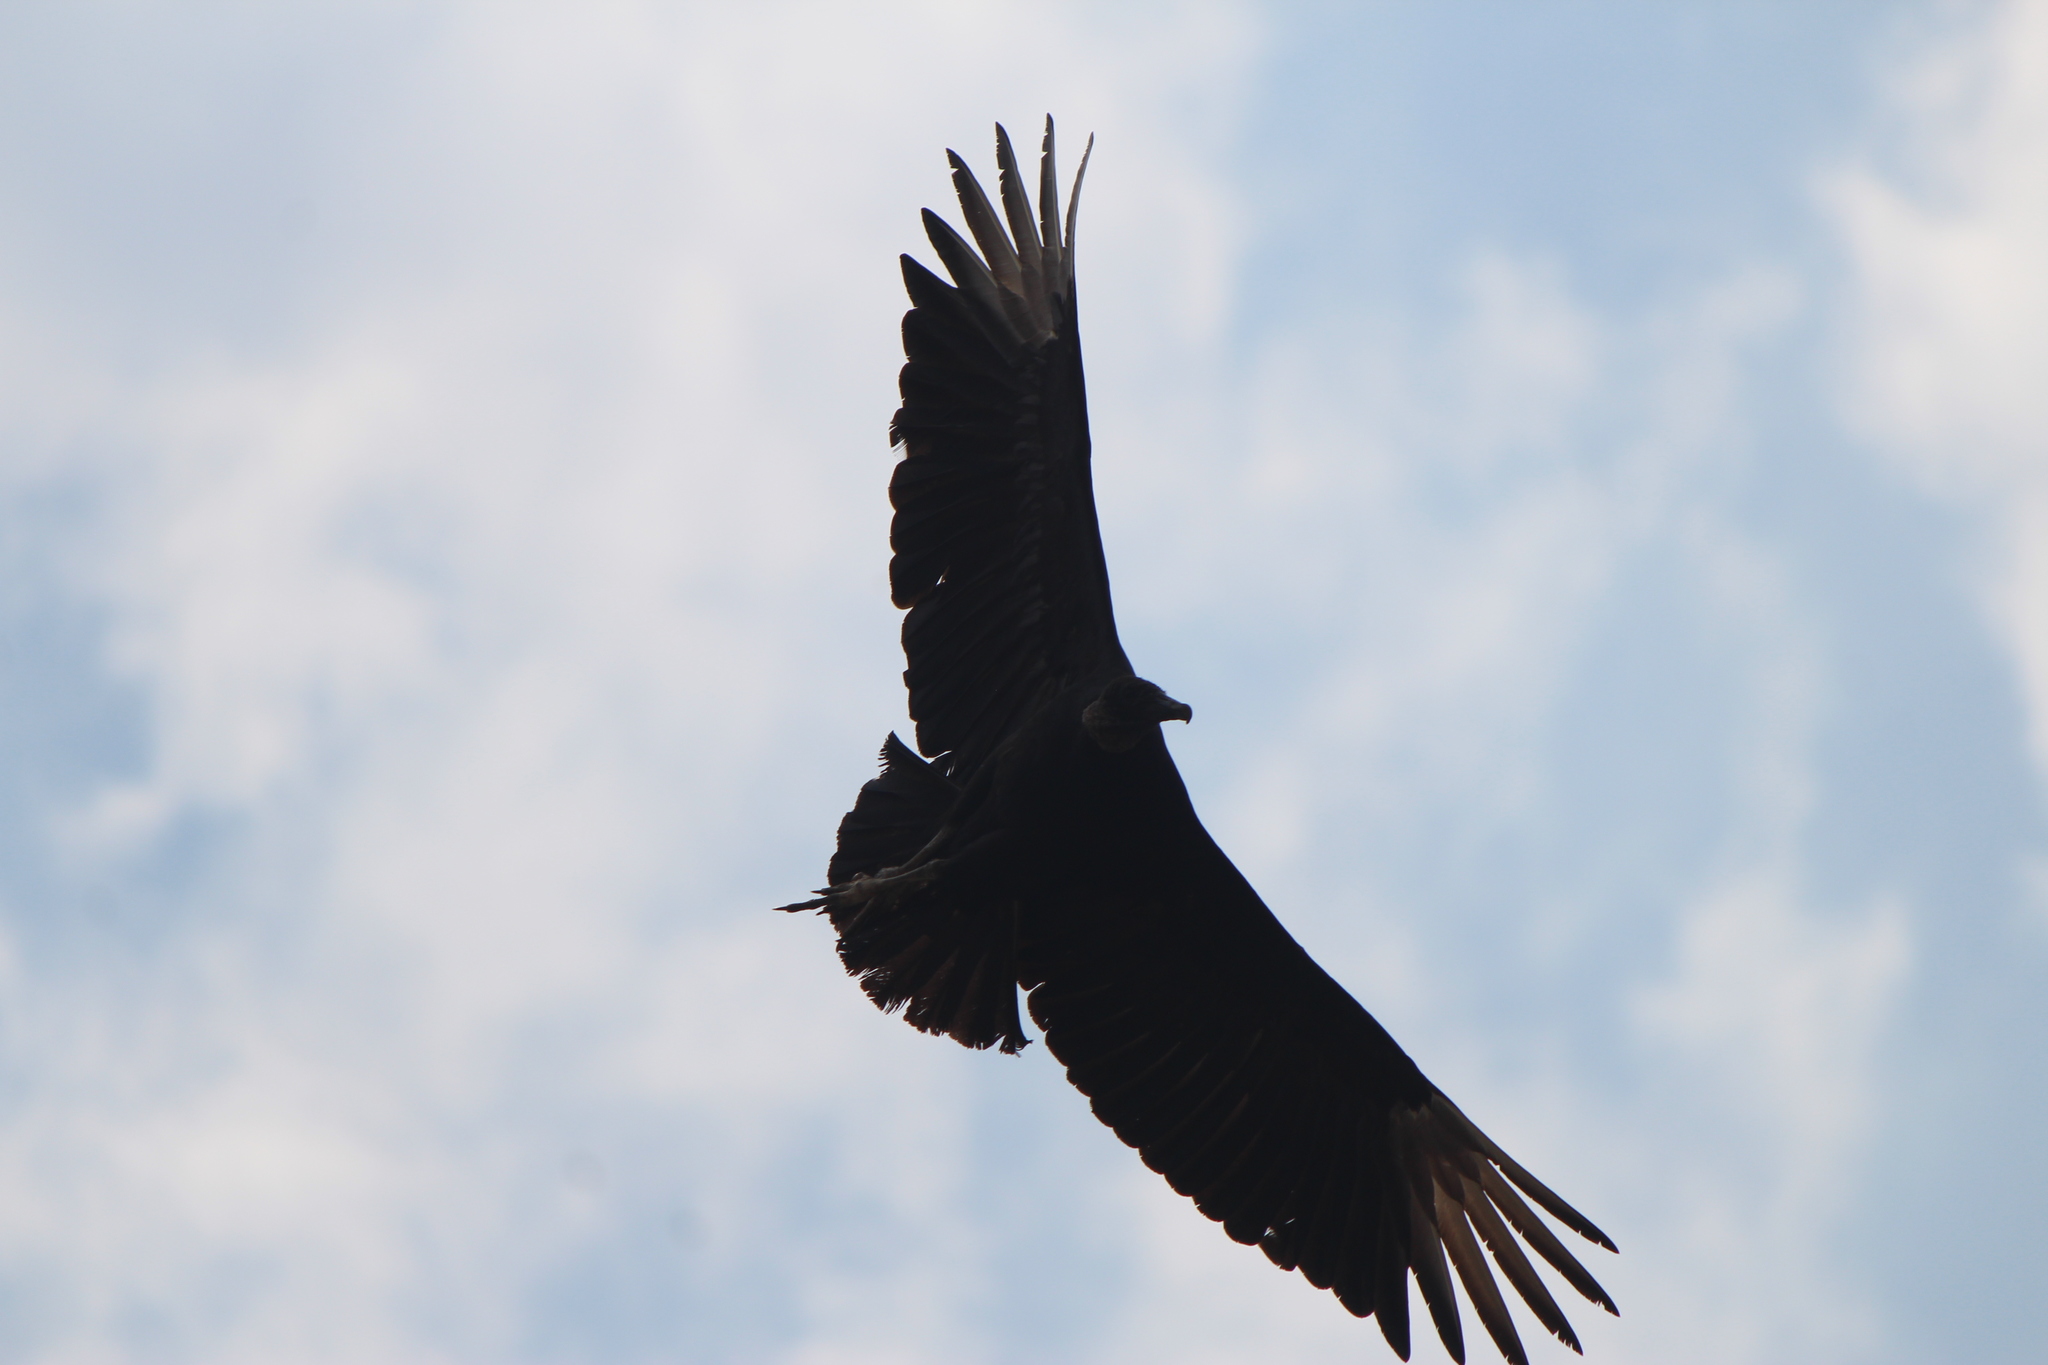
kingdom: Animalia
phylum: Chordata
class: Aves
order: Accipitriformes
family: Cathartidae
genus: Coragyps
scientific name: Coragyps atratus
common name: Black vulture
